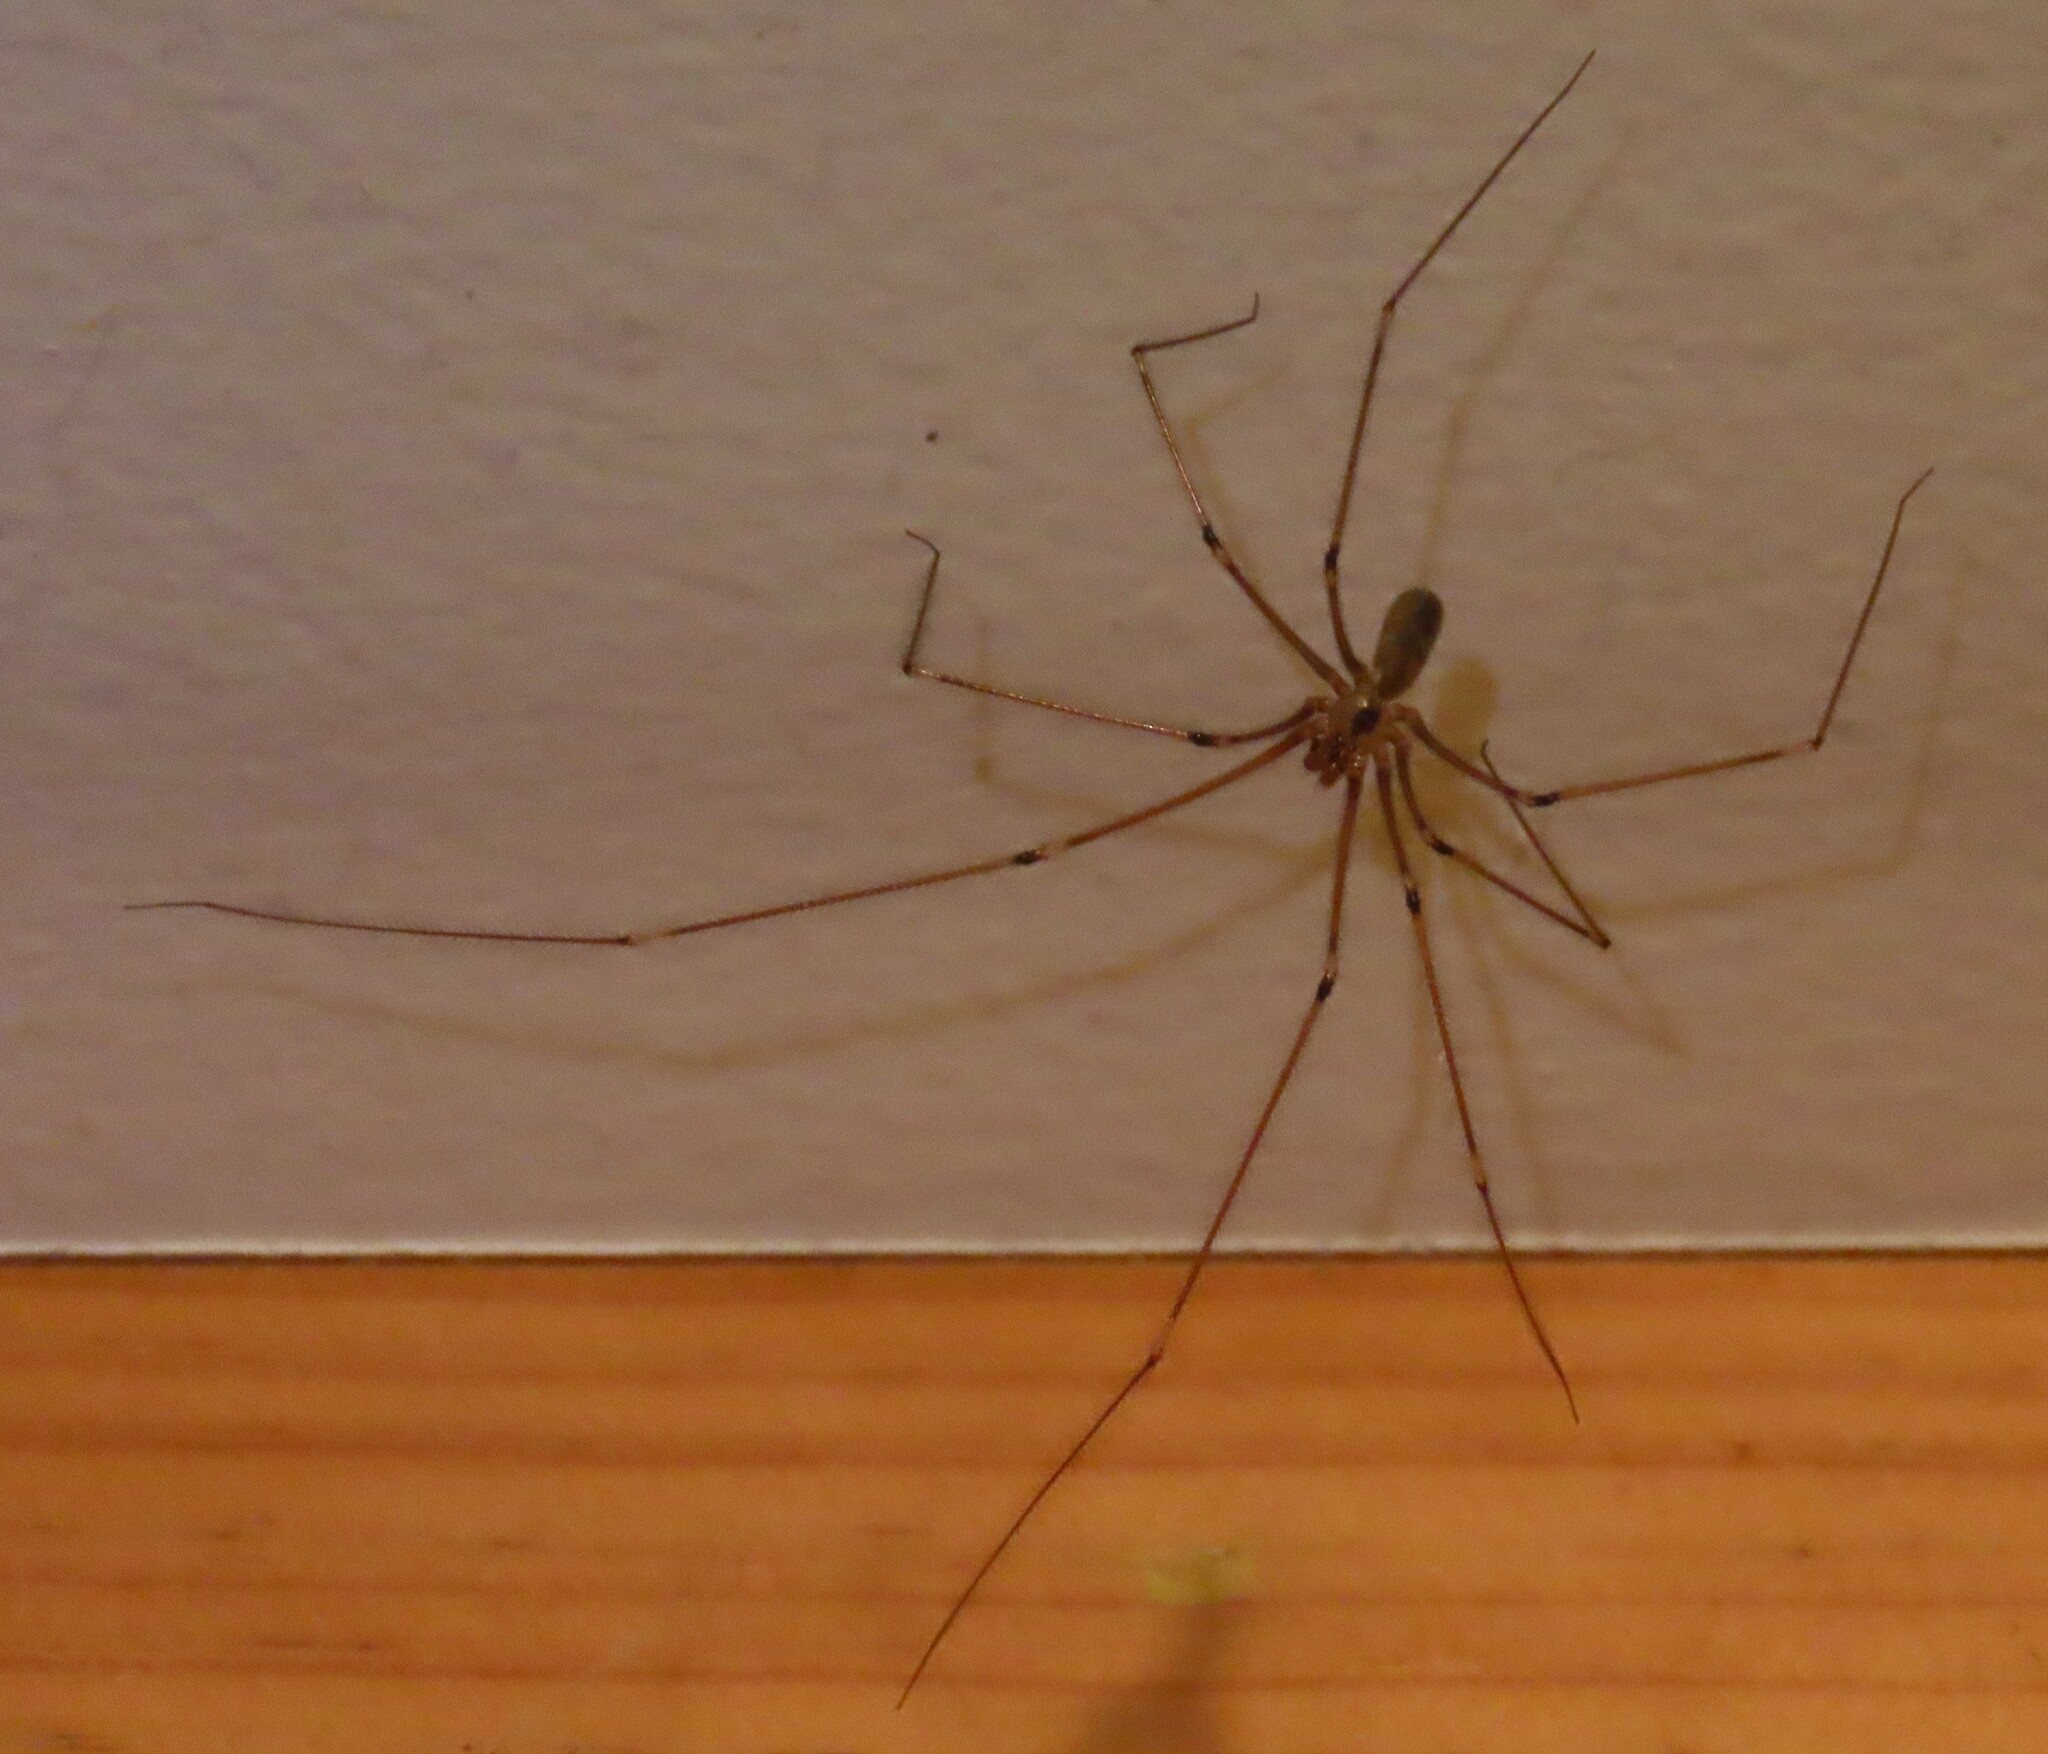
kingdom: Animalia
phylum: Arthropoda
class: Arachnida
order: Araneae
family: Pholcidae
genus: Pholcus
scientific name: Pholcus phalangioides
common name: Longbodied cellar spider
